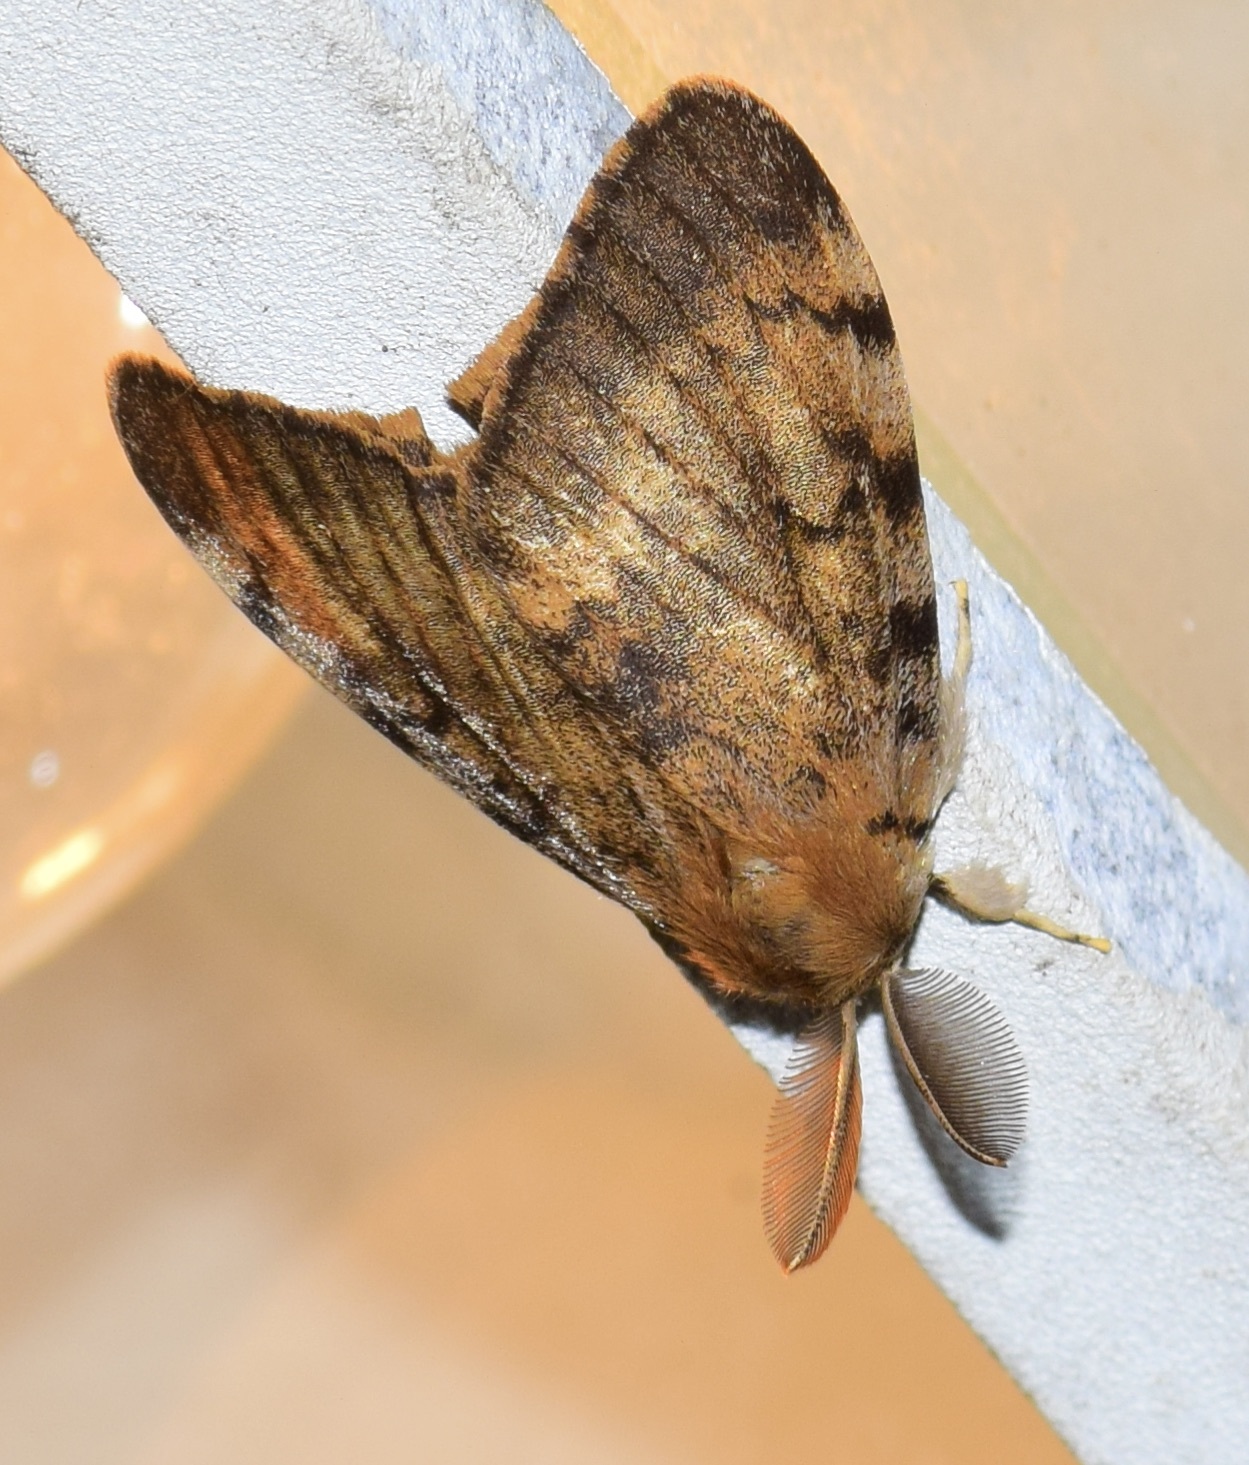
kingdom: Animalia
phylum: Arthropoda
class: Insecta
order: Lepidoptera
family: Erebidae
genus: Lymantria
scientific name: Lymantria dispar
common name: Gypsy moth
